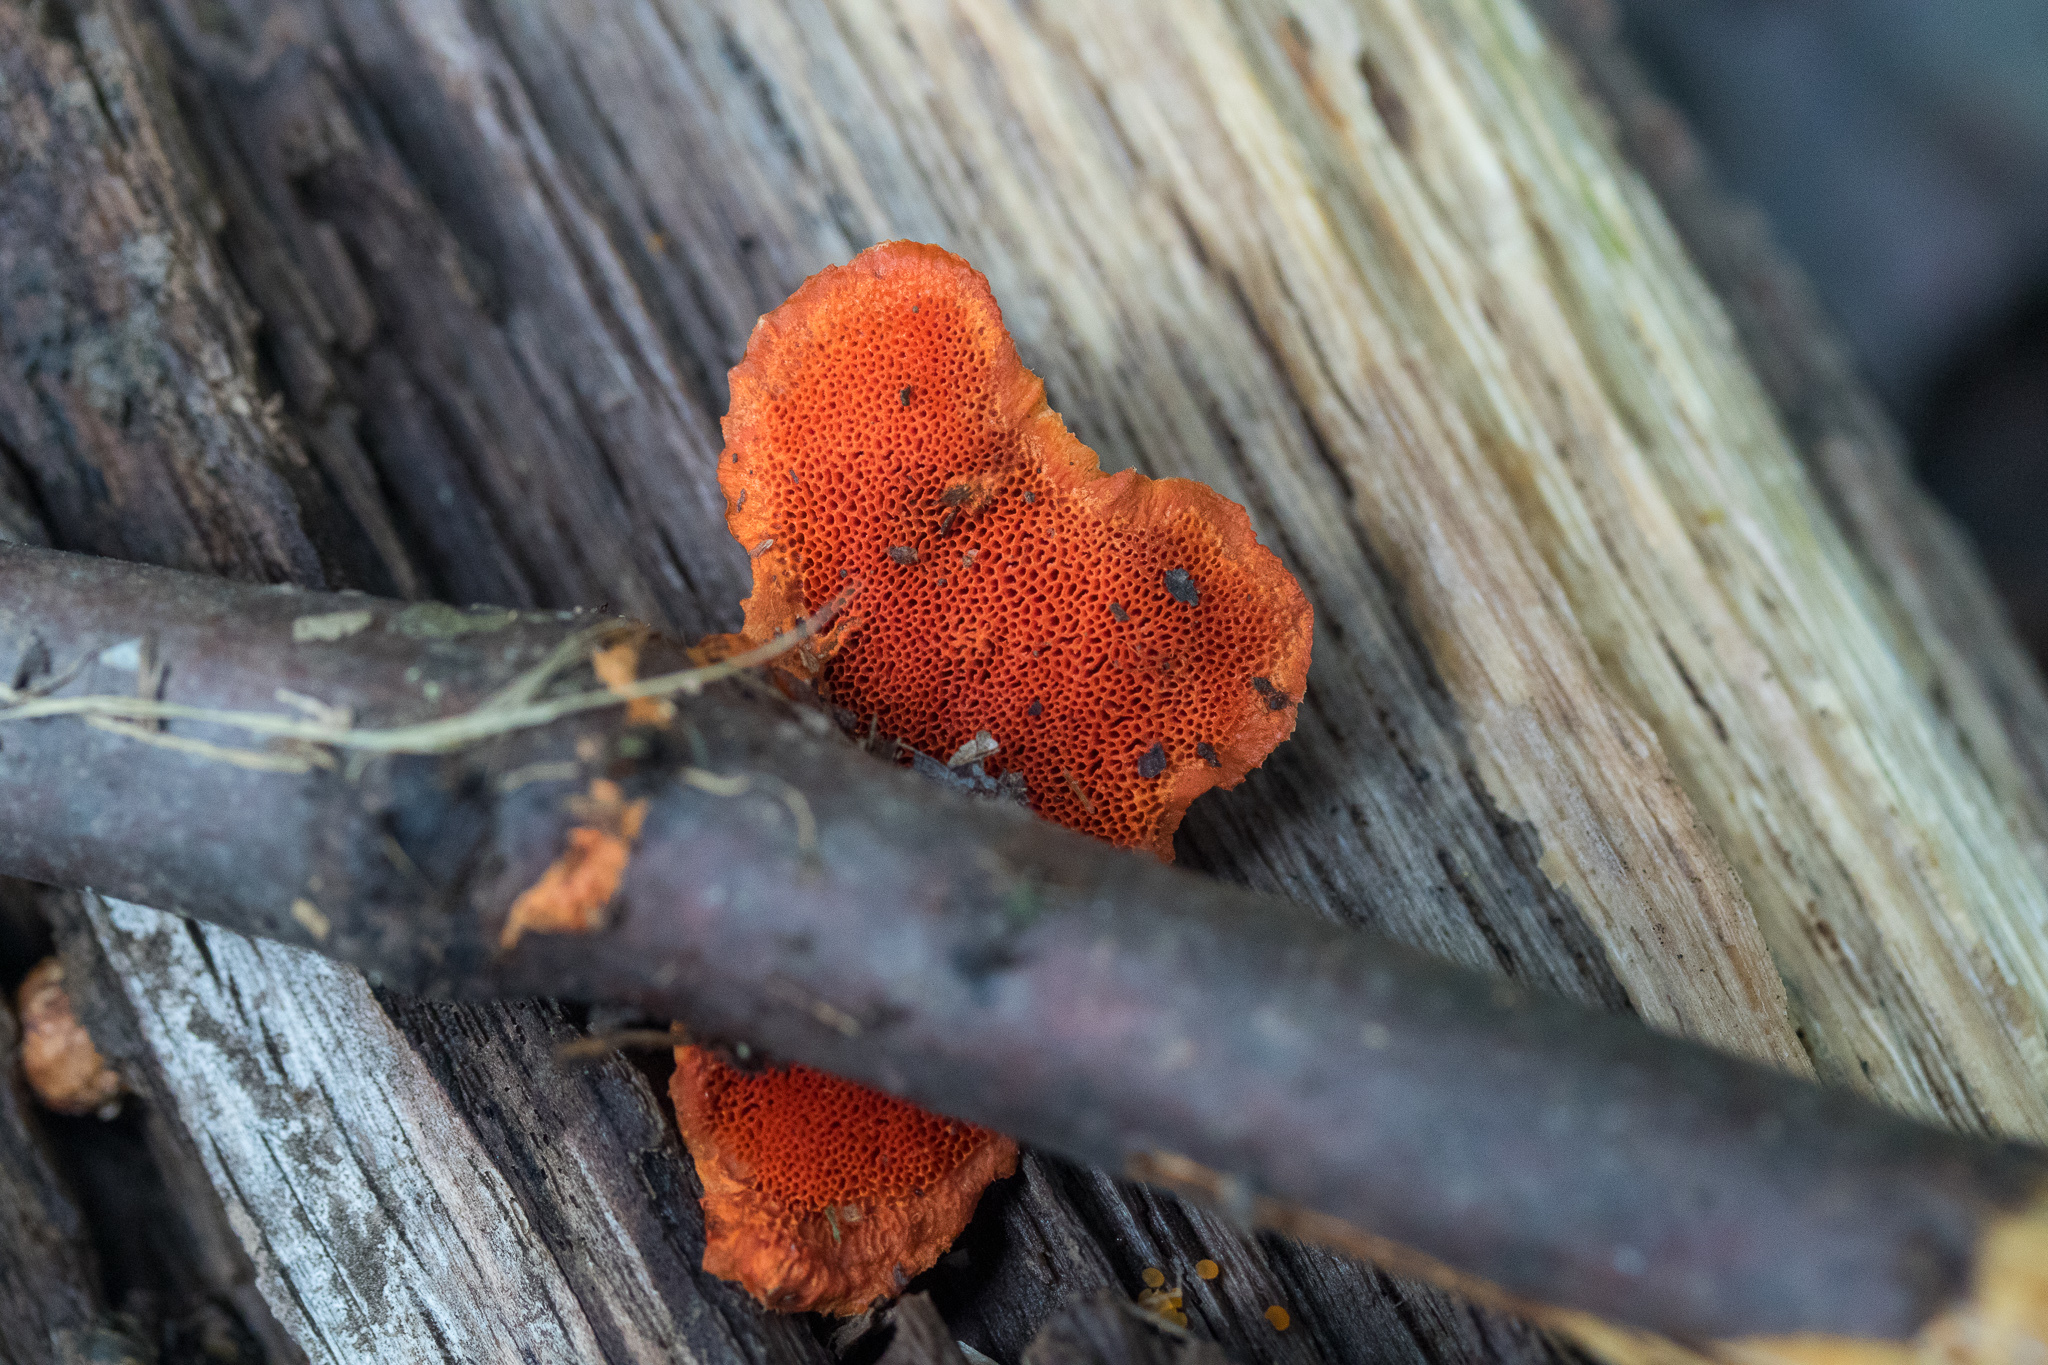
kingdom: Fungi
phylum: Basidiomycota
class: Agaricomycetes
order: Polyporales
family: Polyporaceae
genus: Trametes
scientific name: Trametes cinnabarina
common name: Northern cinnabar polypore
